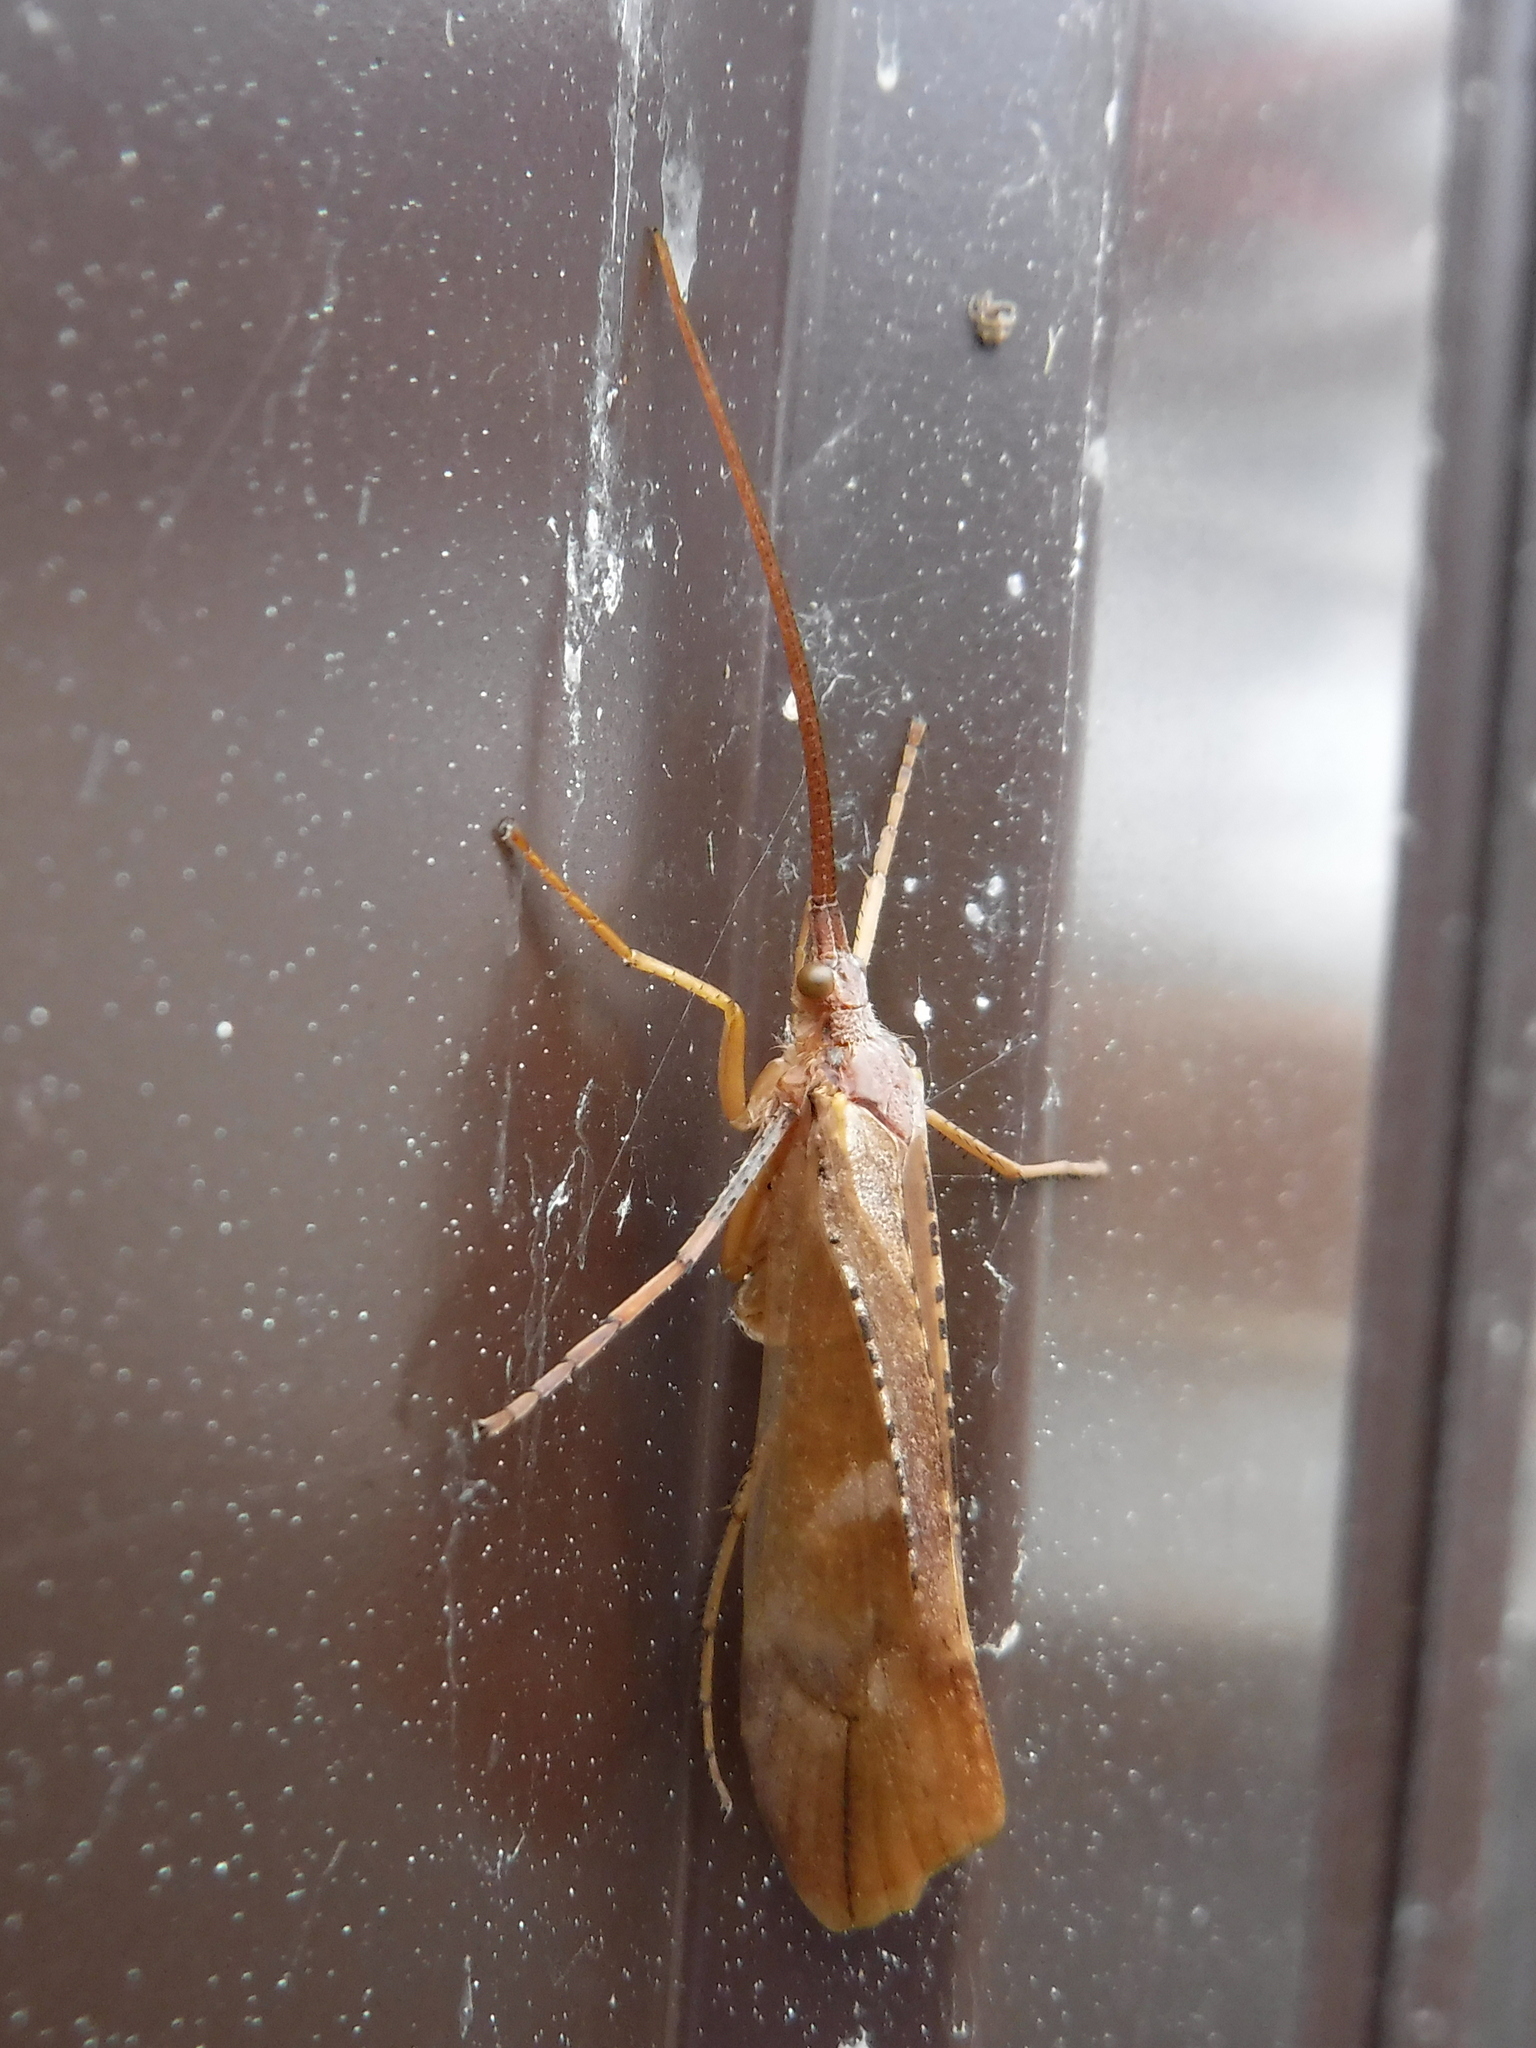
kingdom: Animalia
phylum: Arthropoda
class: Insecta
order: Trichoptera
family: Limnephilidae
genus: Nemotaulius
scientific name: Nemotaulius punctatolineatus
